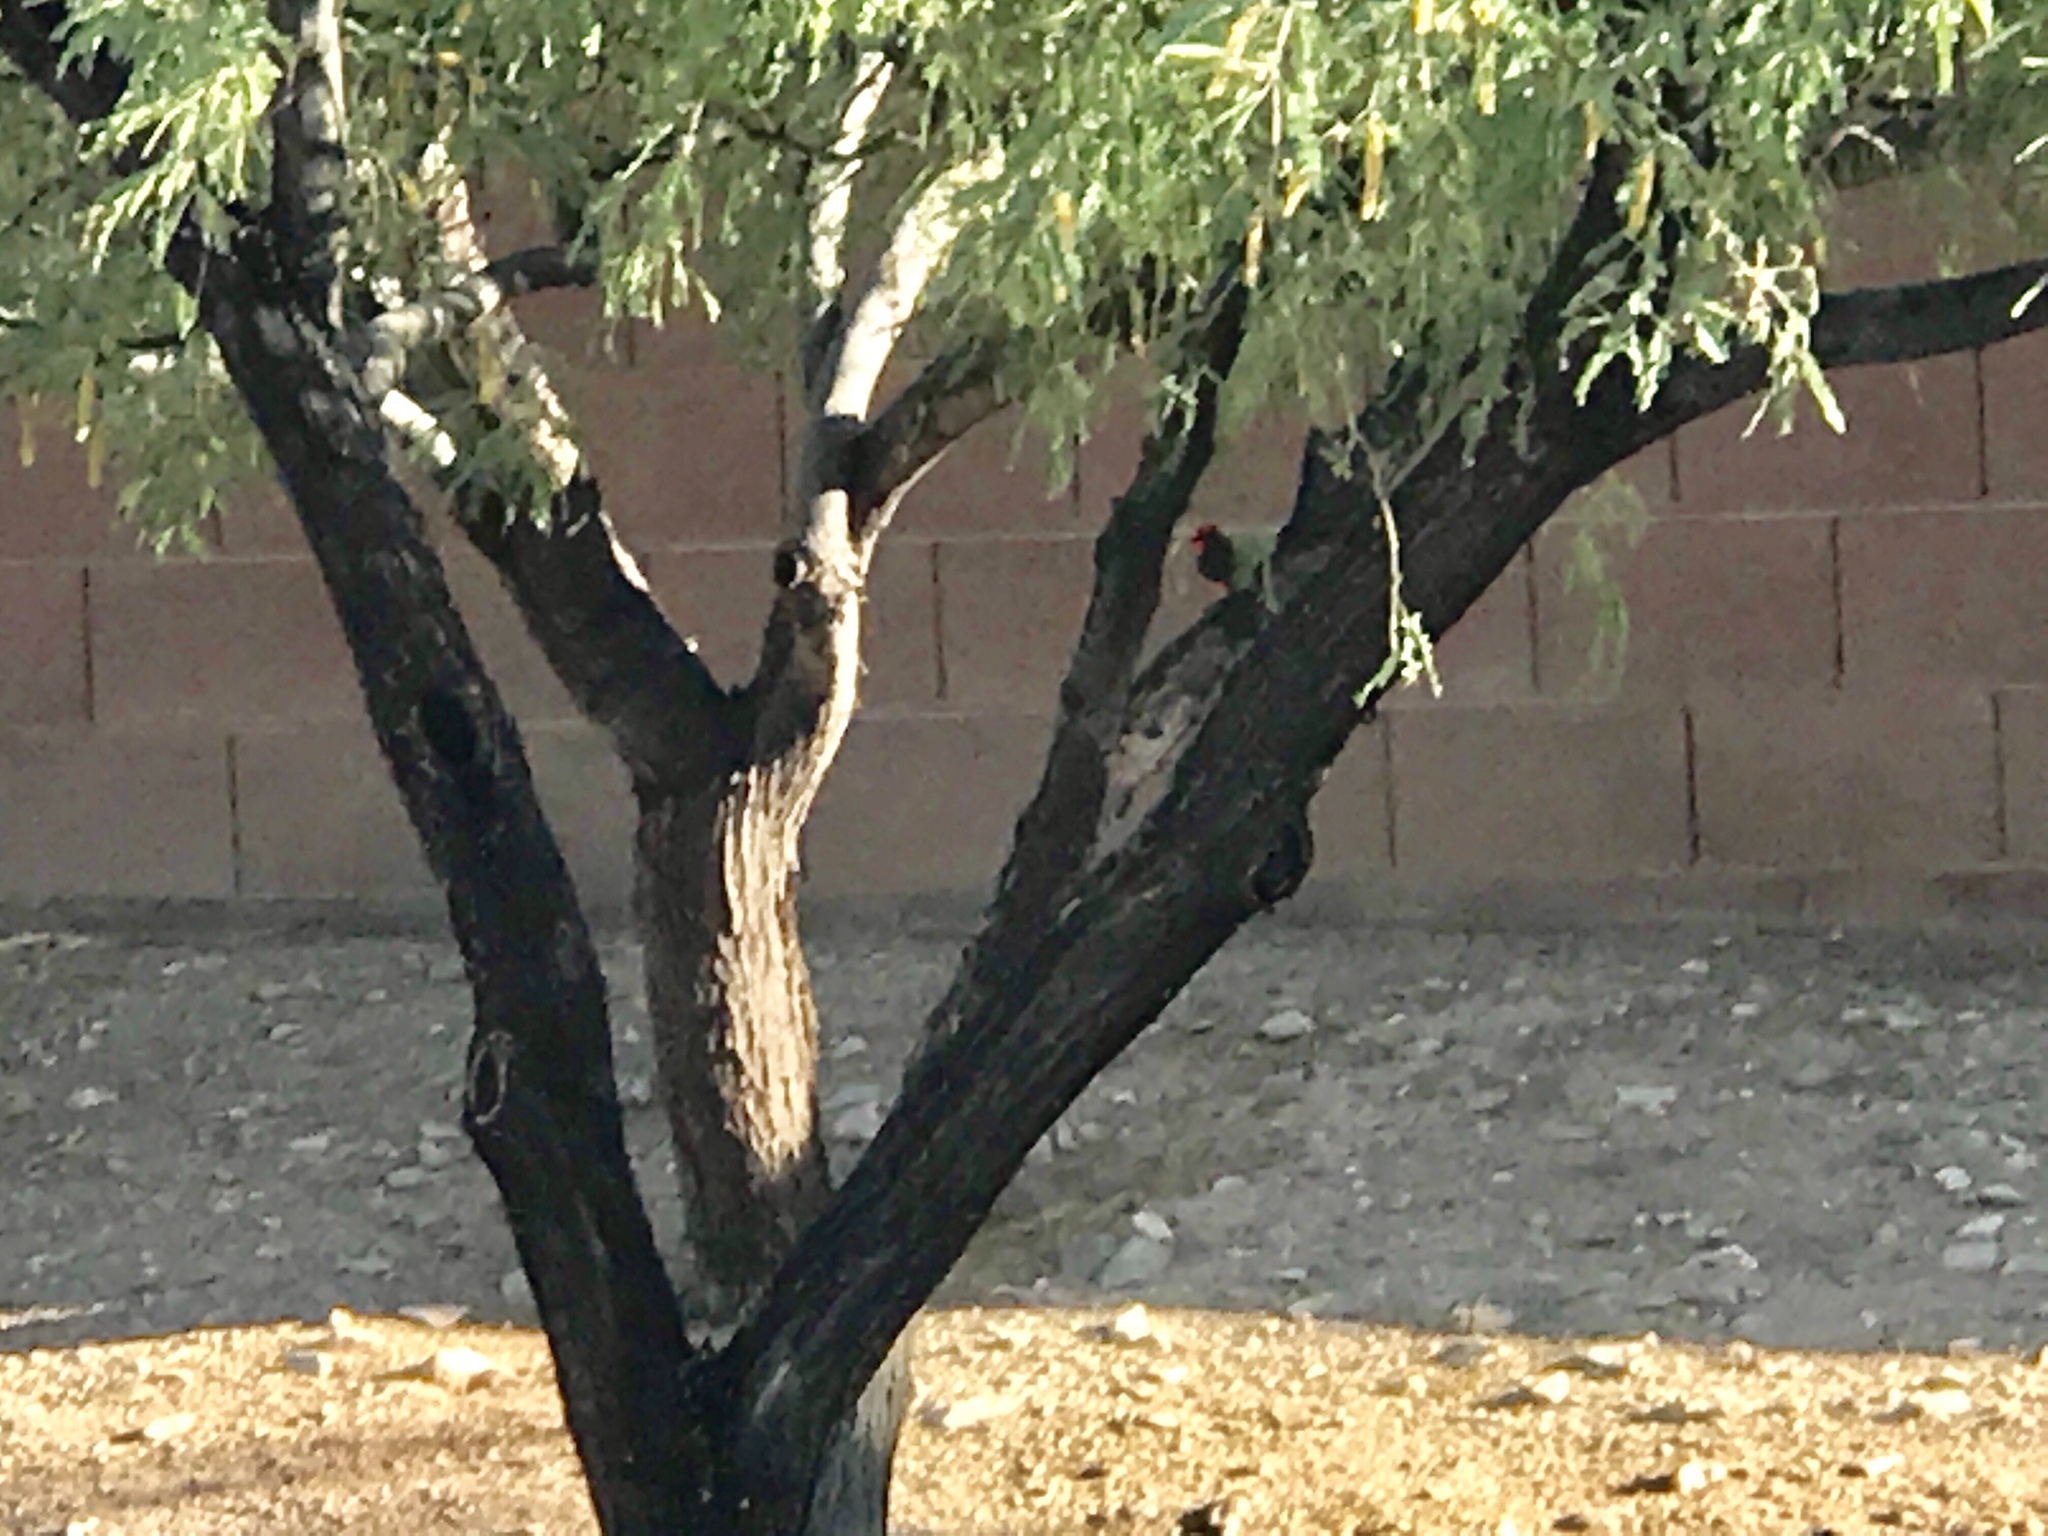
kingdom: Animalia
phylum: Chordata
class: Aves
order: Passeriformes
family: Tyrannidae
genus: Pyrocephalus
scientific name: Pyrocephalus rubinus
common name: Vermilion flycatcher
